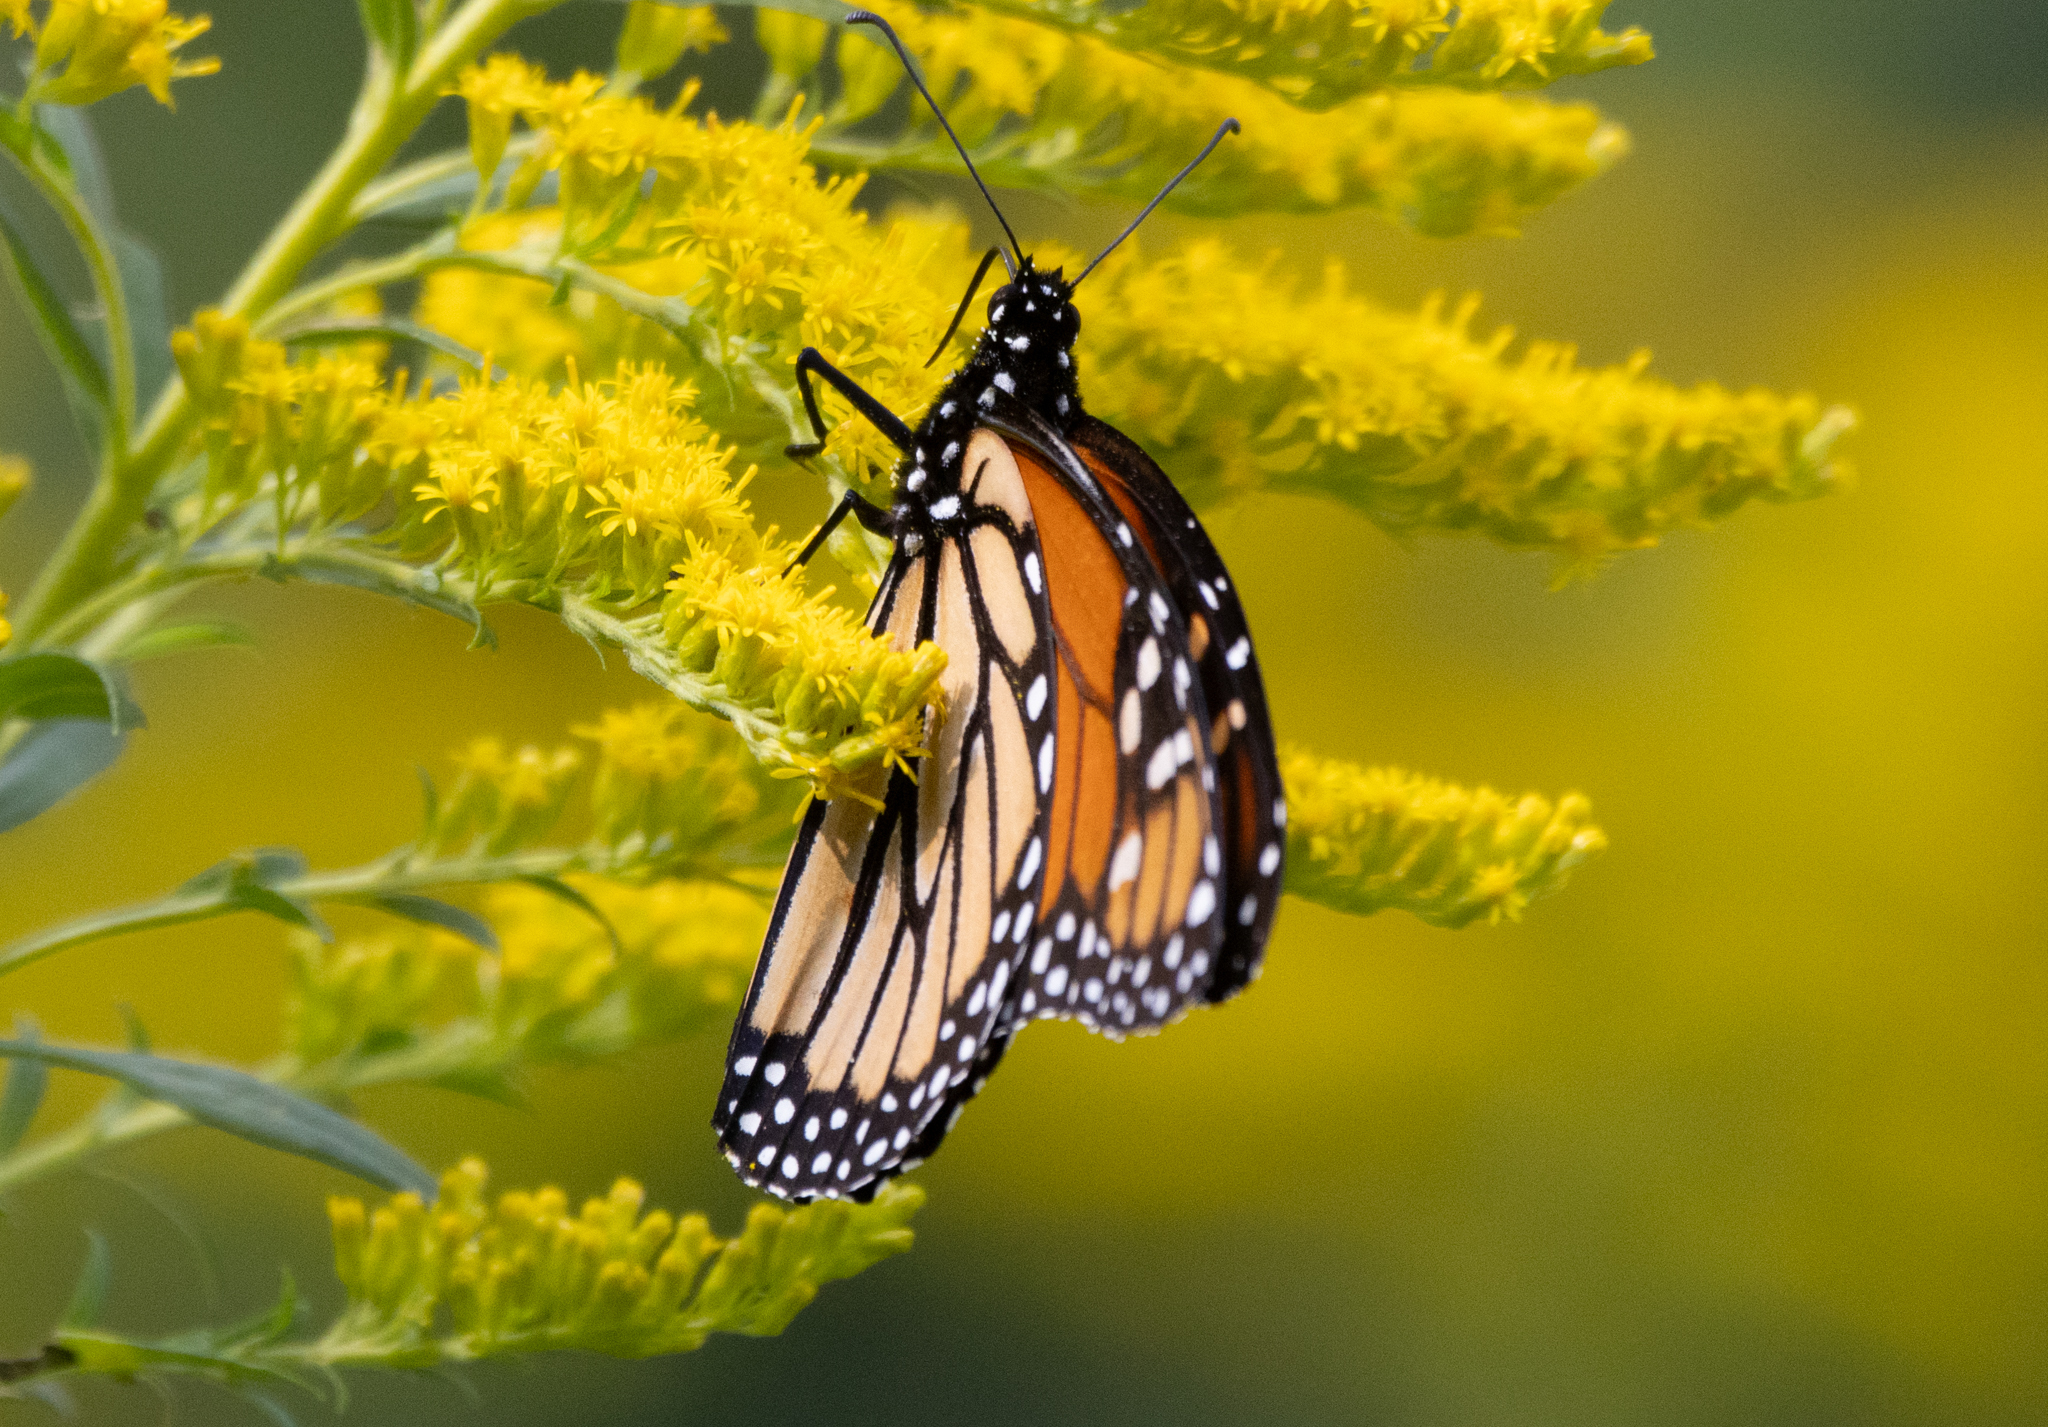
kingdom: Animalia
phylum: Arthropoda
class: Insecta
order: Lepidoptera
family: Nymphalidae
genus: Danaus
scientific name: Danaus plexippus
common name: Monarch
